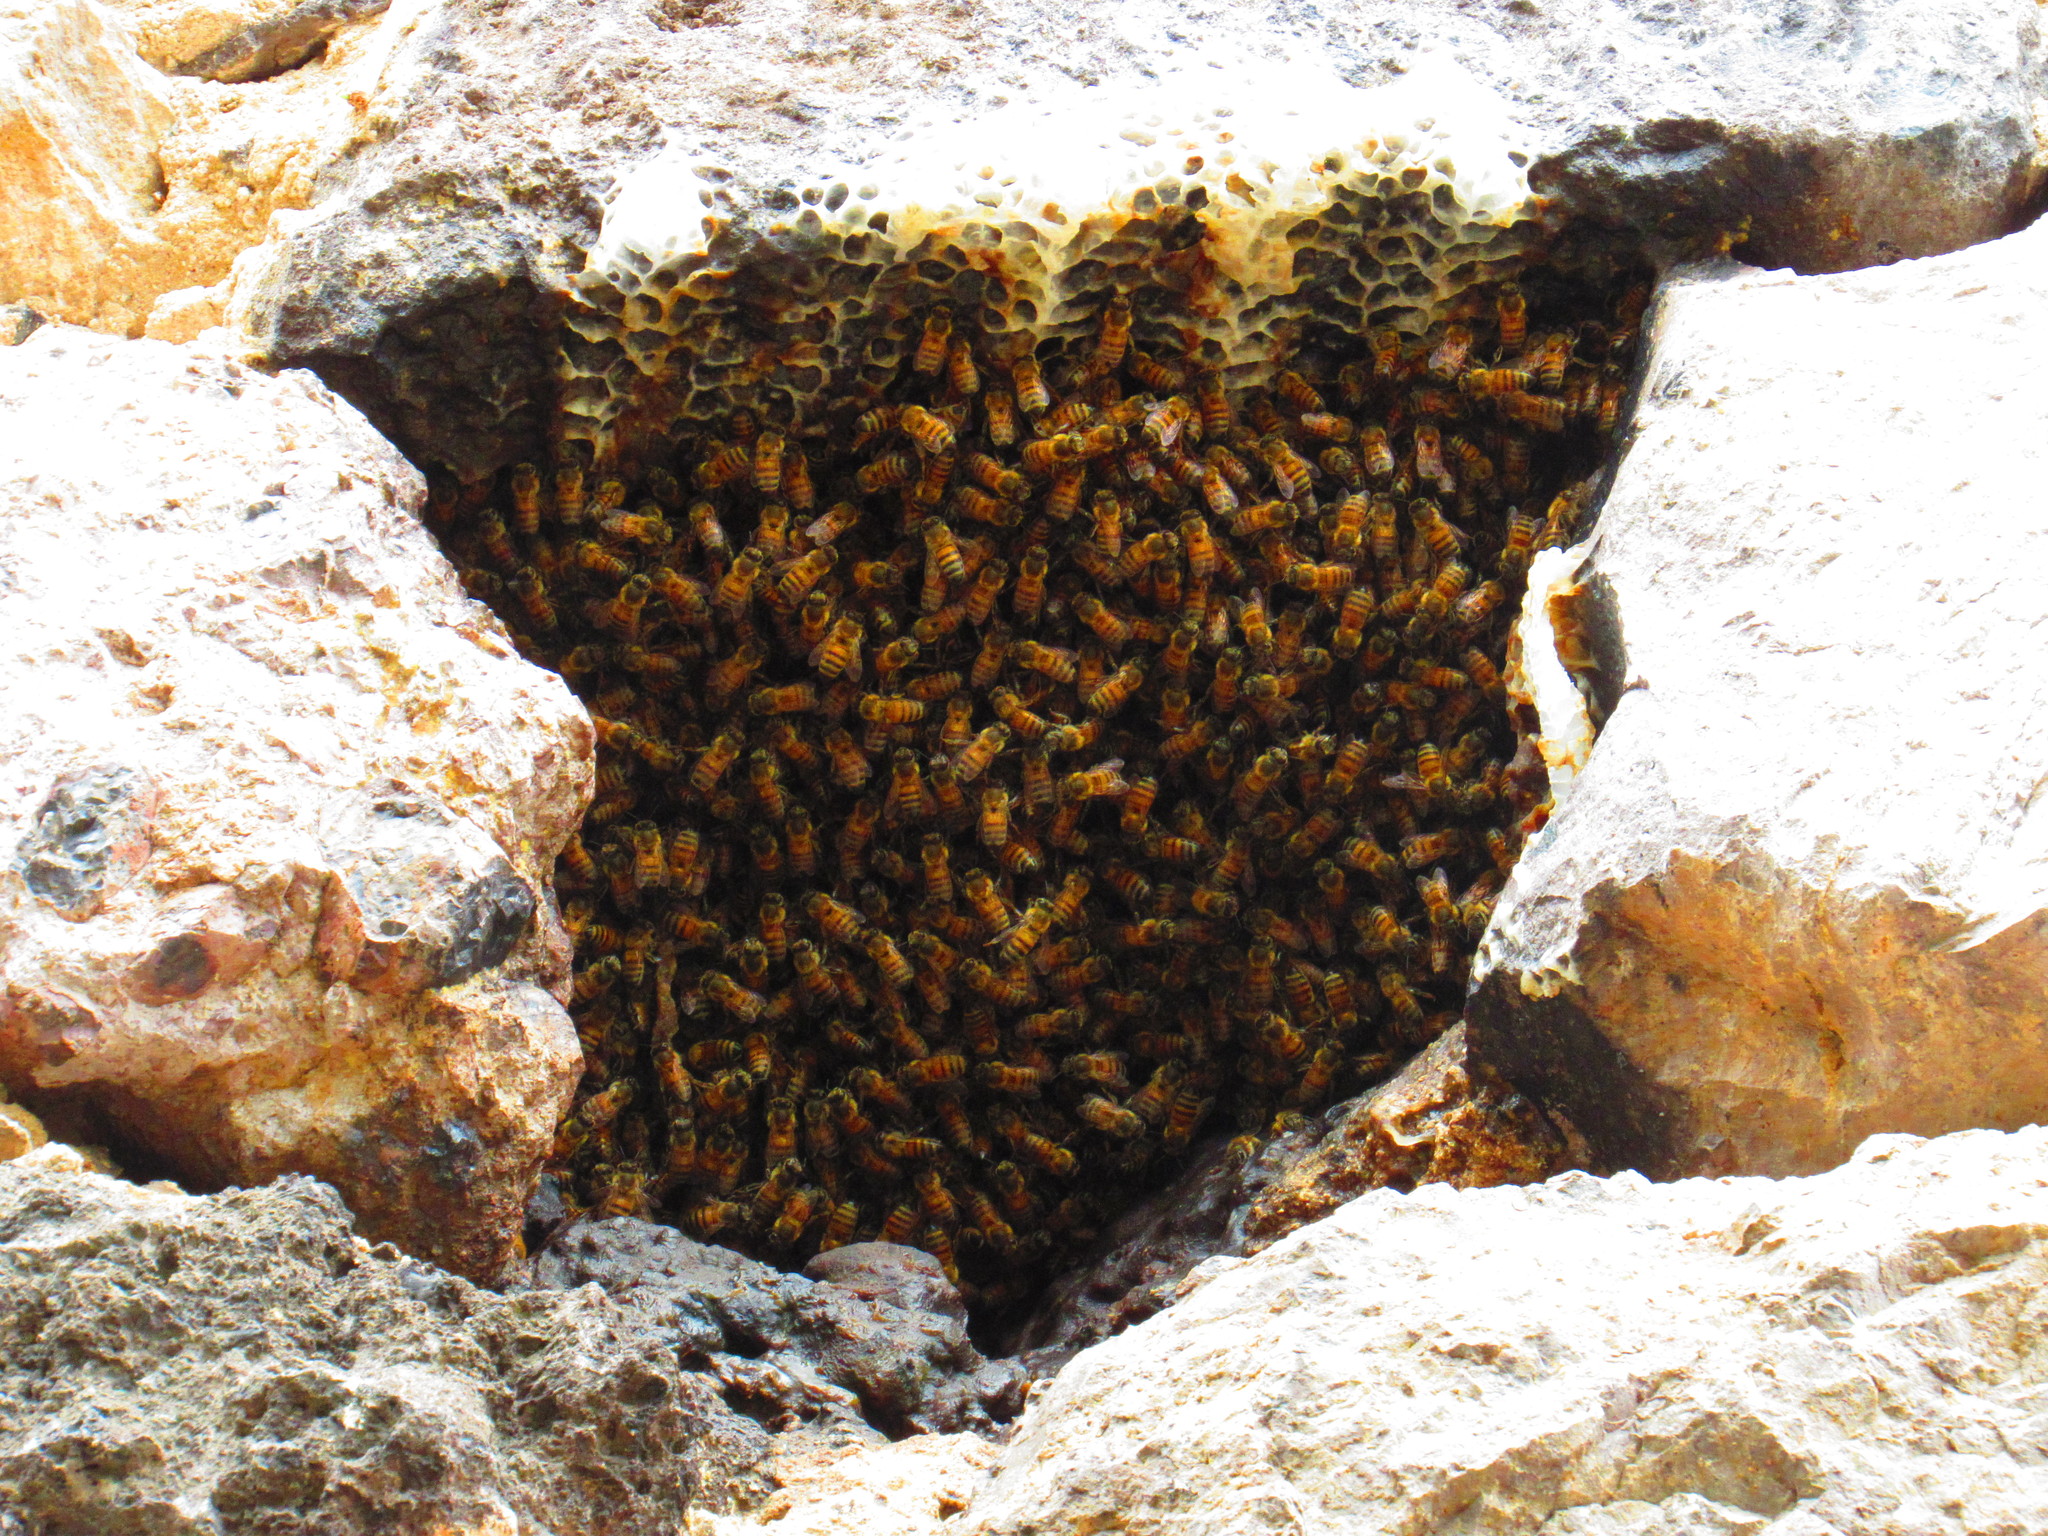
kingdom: Animalia
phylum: Arthropoda
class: Insecta
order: Hymenoptera
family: Apidae
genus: Apis
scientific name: Apis mellifera
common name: Honey bee
